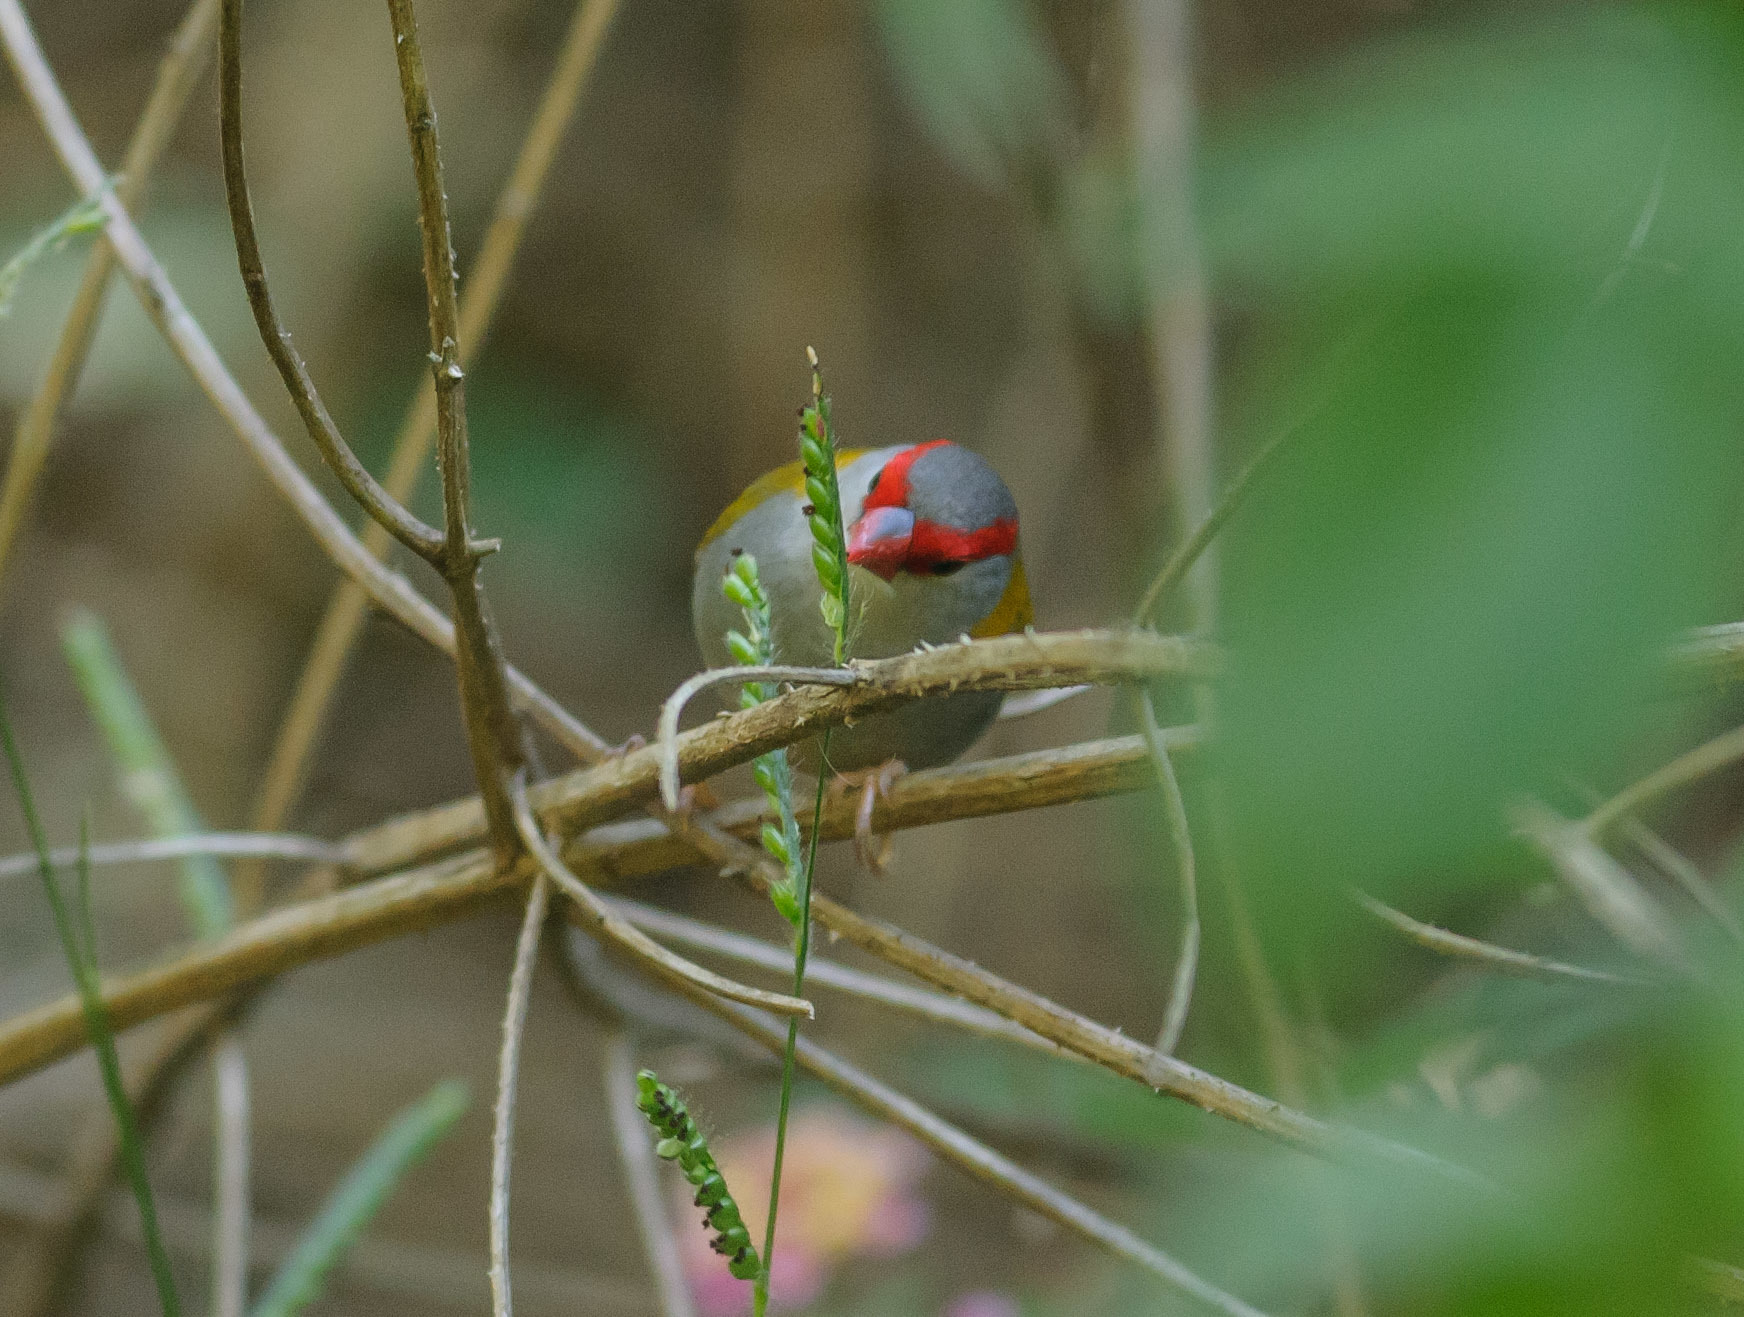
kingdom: Animalia
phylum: Chordata
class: Aves
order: Passeriformes
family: Estrildidae
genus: Neochmia
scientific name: Neochmia temporalis
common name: Red-browed finch
